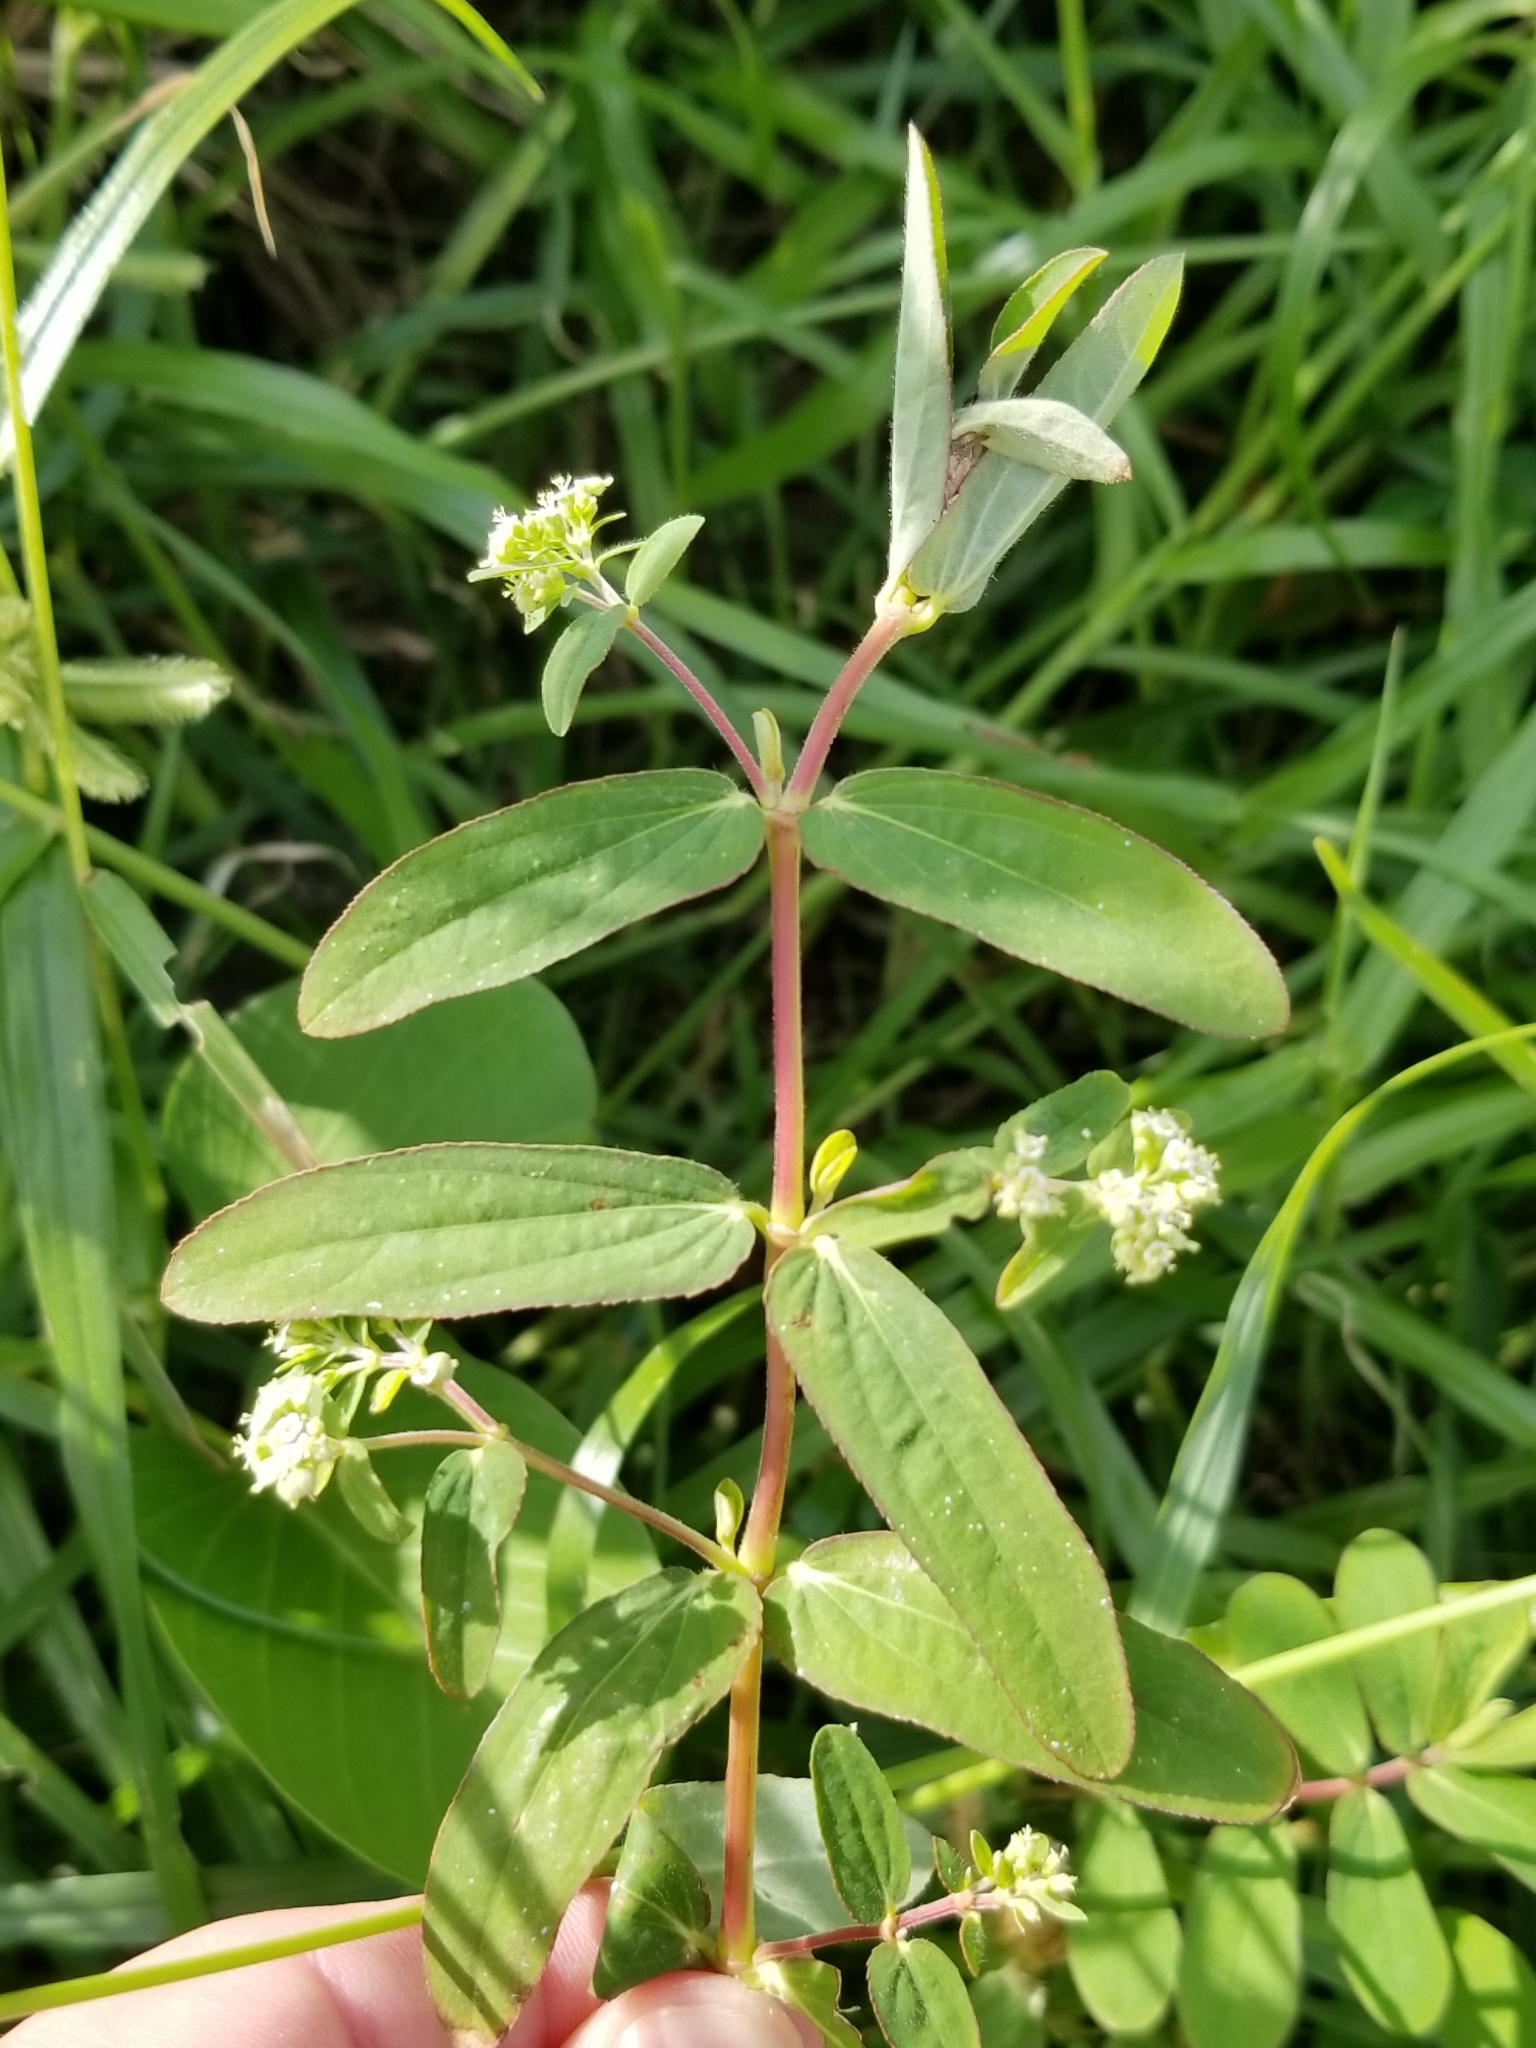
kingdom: Plantae
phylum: Tracheophyta
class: Magnoliopsida
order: Malpighiales
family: Euphorbiaceae
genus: Euphorbia
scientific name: Euphorbia lasiocarpa
